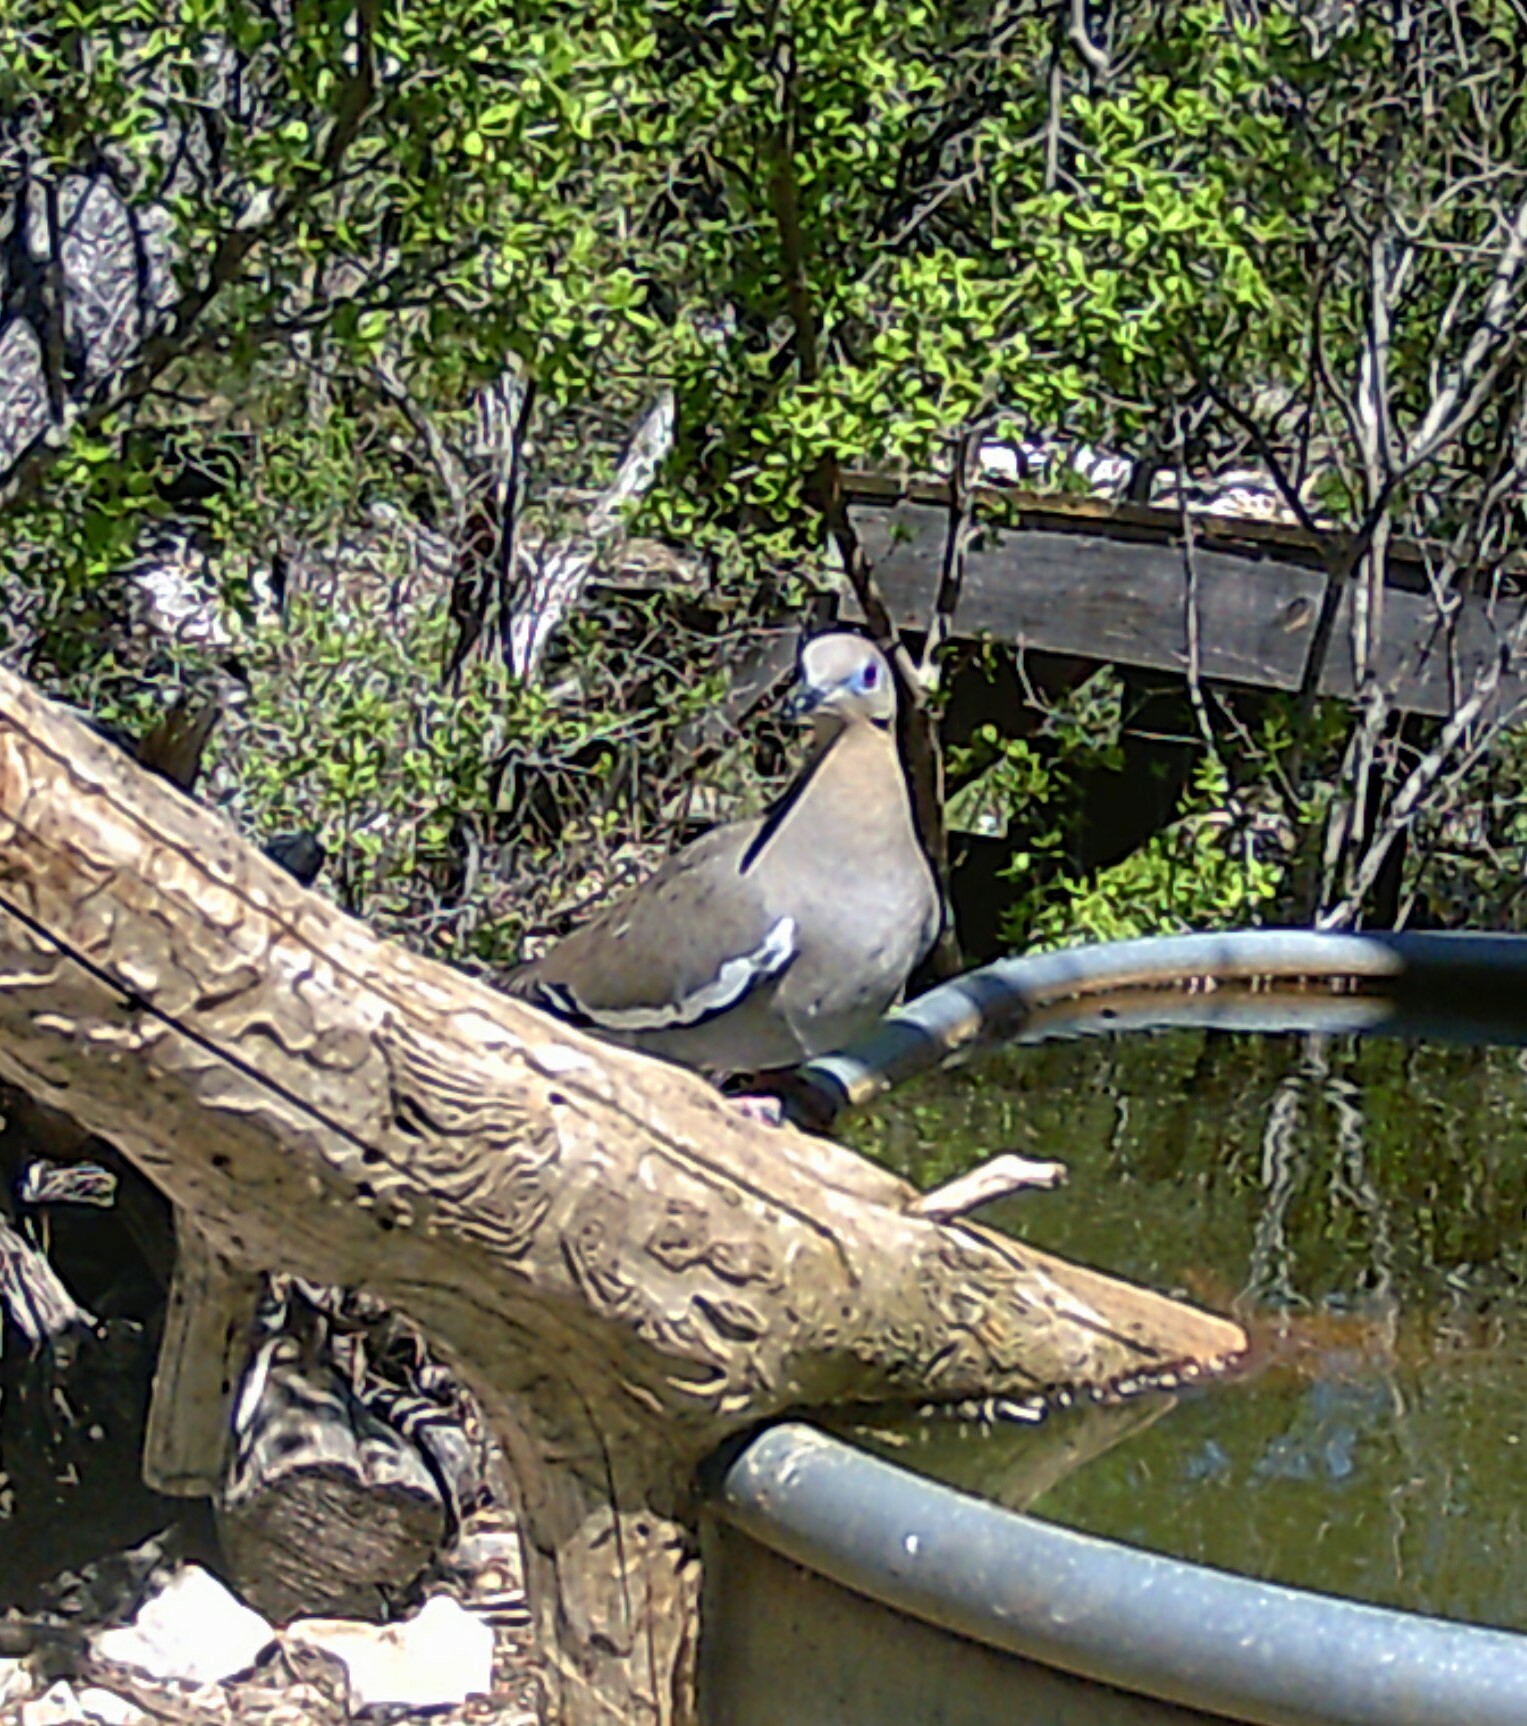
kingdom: Animalia
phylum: Chordata
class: Aves
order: Columbiformes
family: Columbidae
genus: Zenaida
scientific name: Zenaida asiatica
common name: White-winged dove
